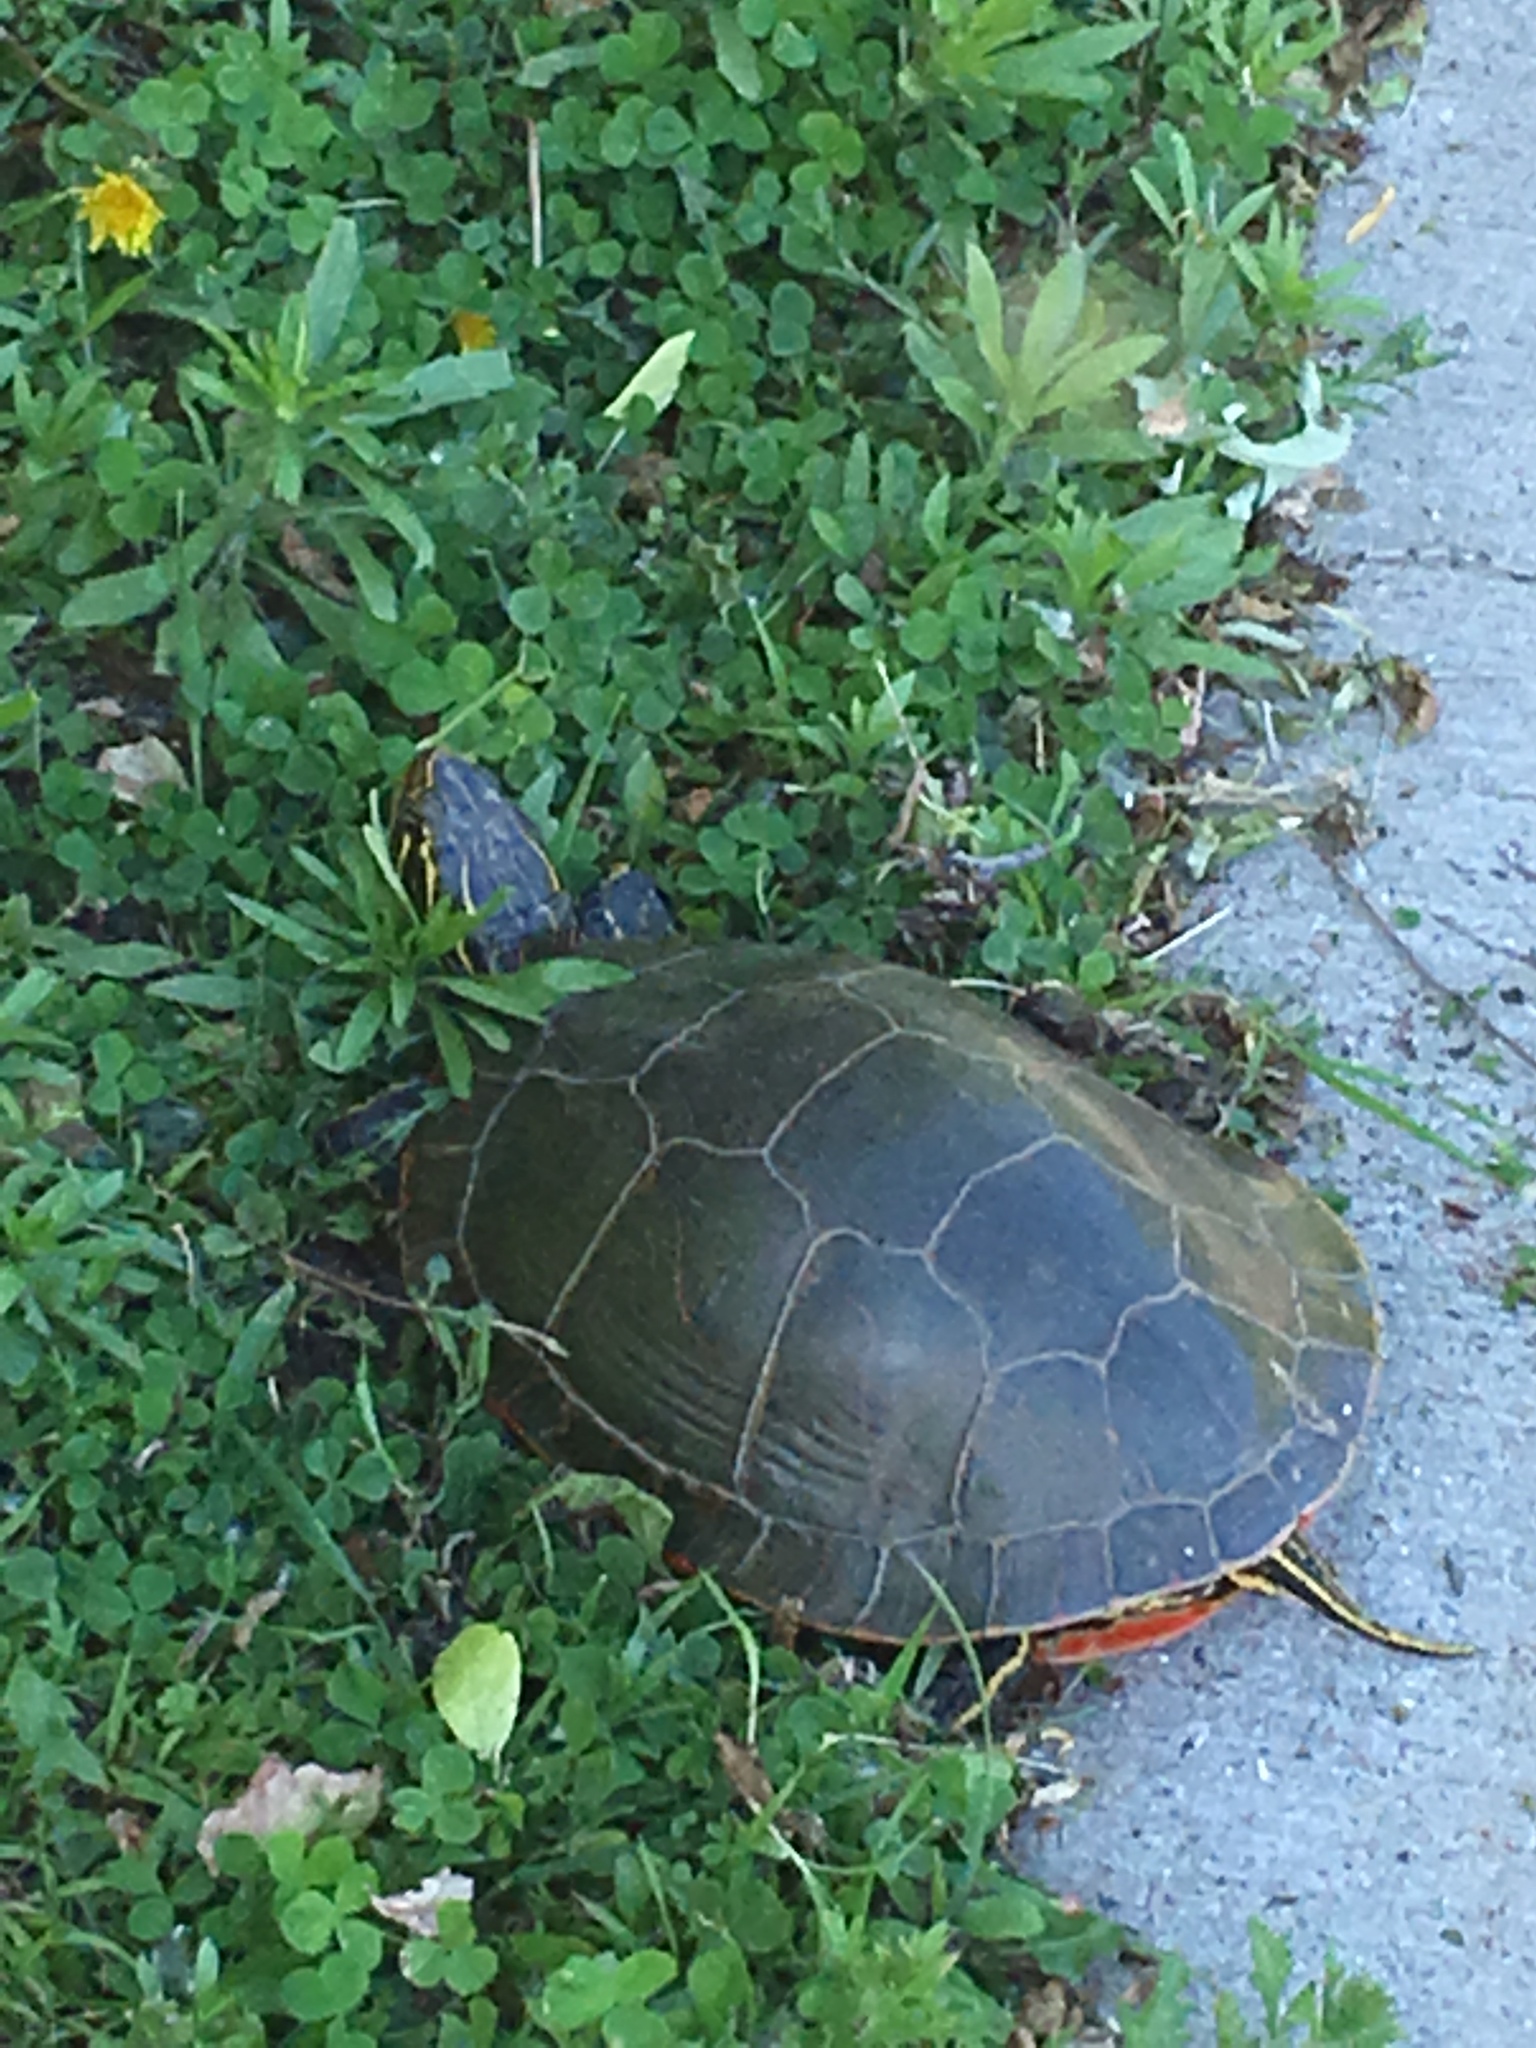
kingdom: Animalia
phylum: Chordata
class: Testudines
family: Emydidae
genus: Chrysemys
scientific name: Chrysemys picta
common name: Painted turtle
